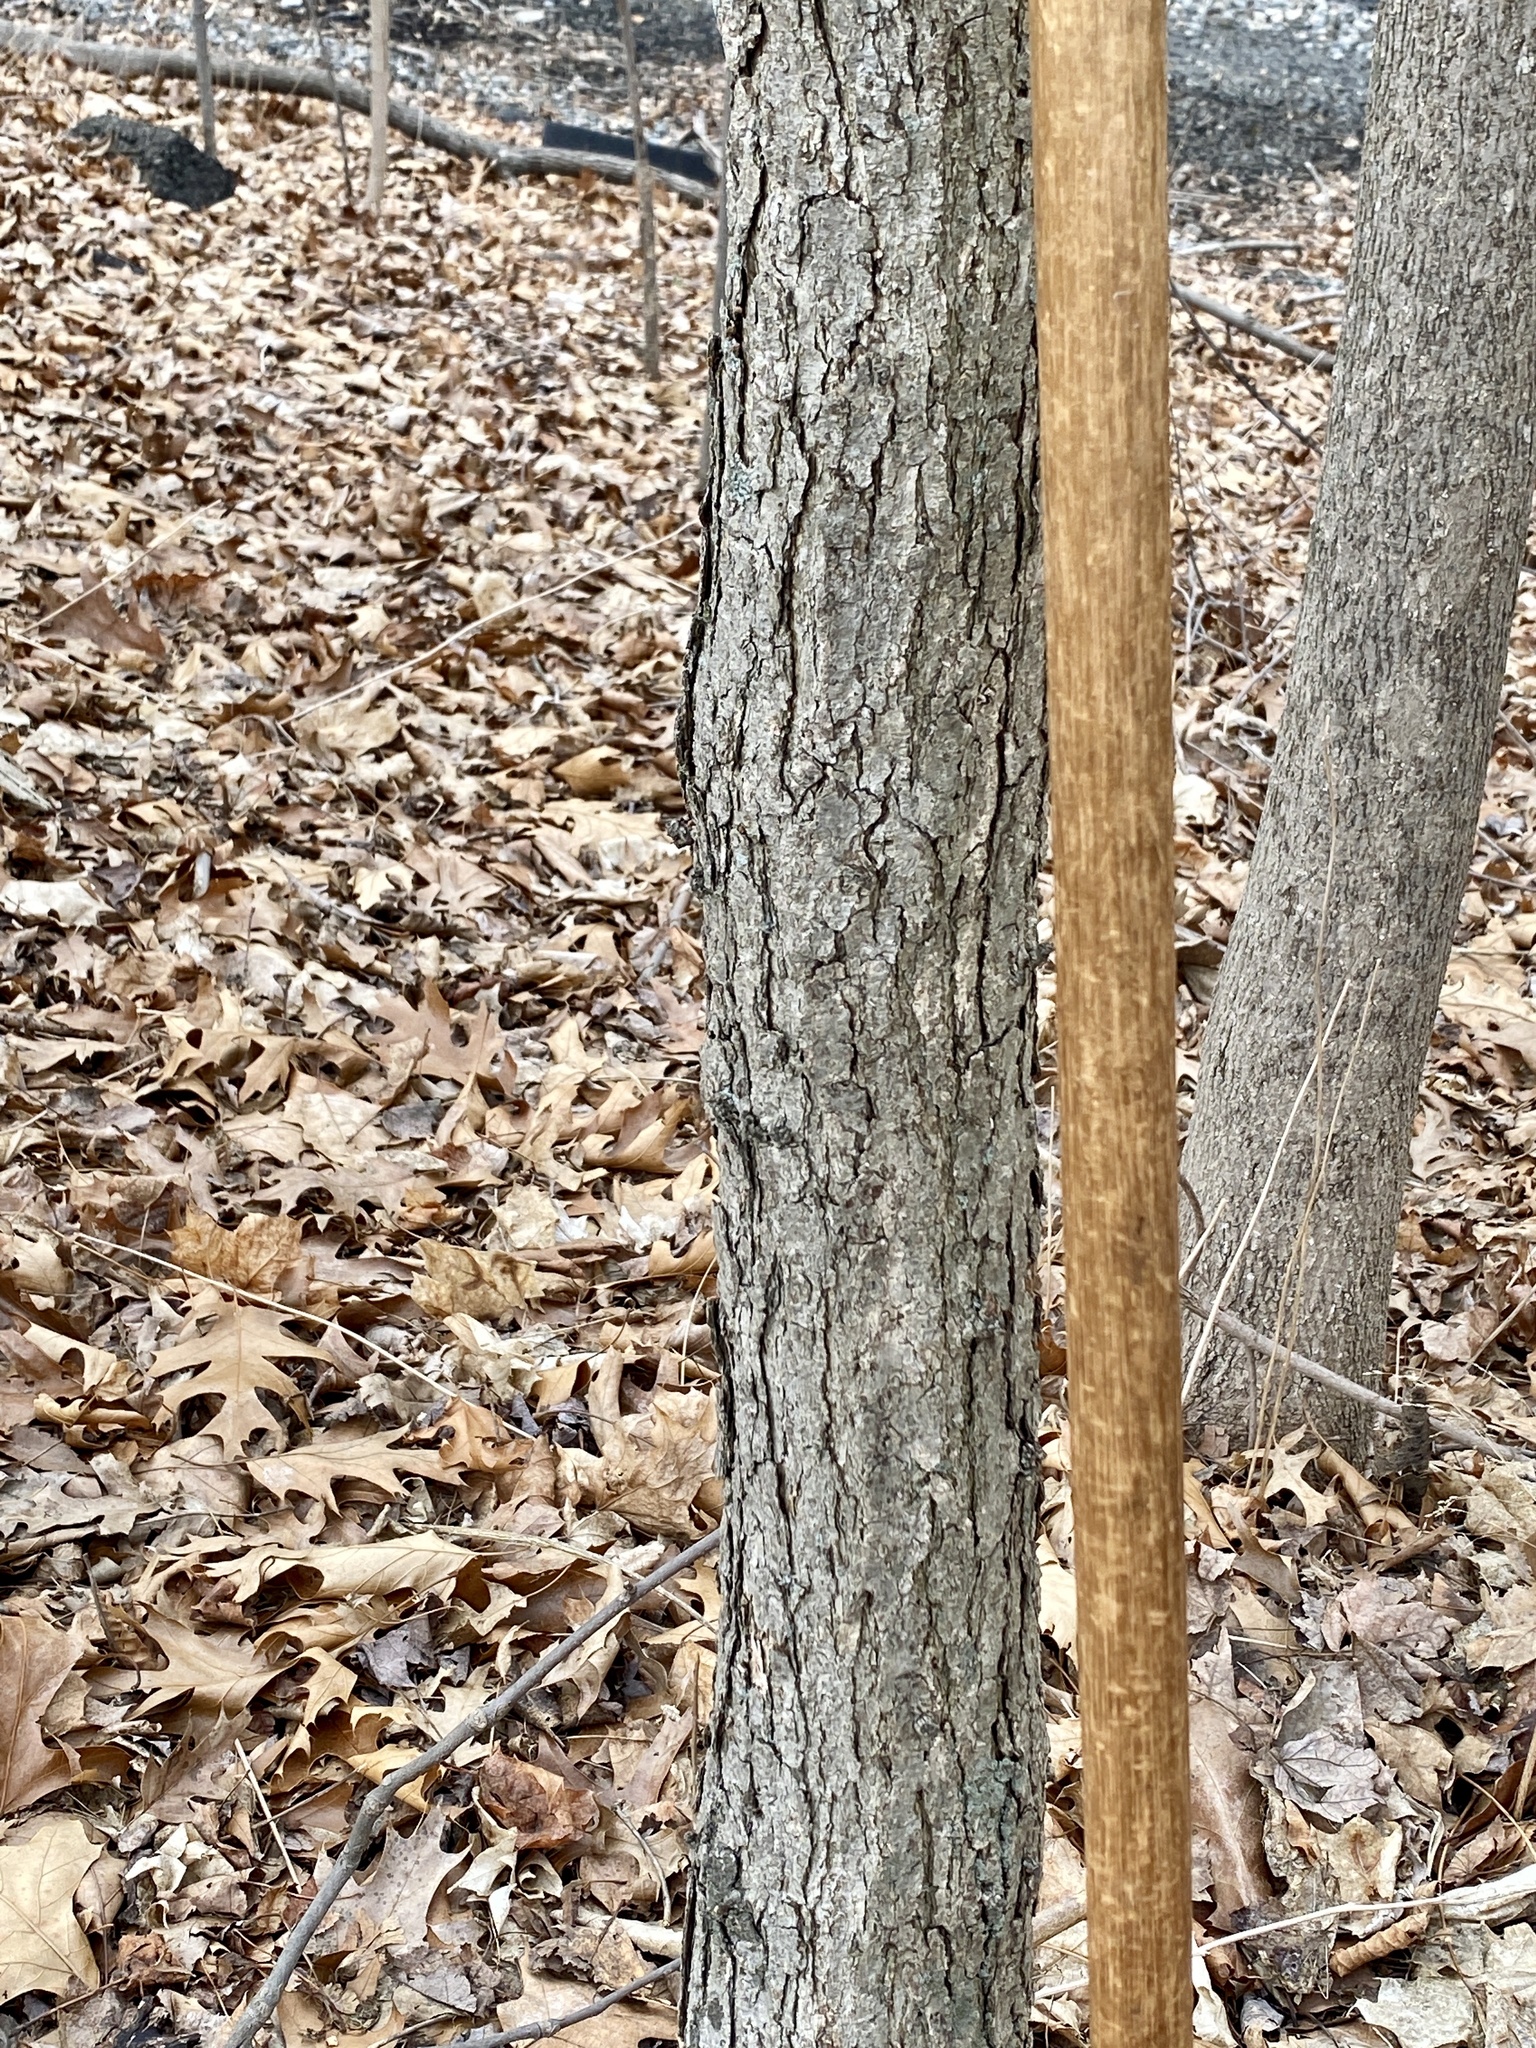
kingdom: Plantae
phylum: Tracheophyta
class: Magnoliopsida
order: Fagales
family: Fagaceae
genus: Quercus
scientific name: Quercus alba
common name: White oak
